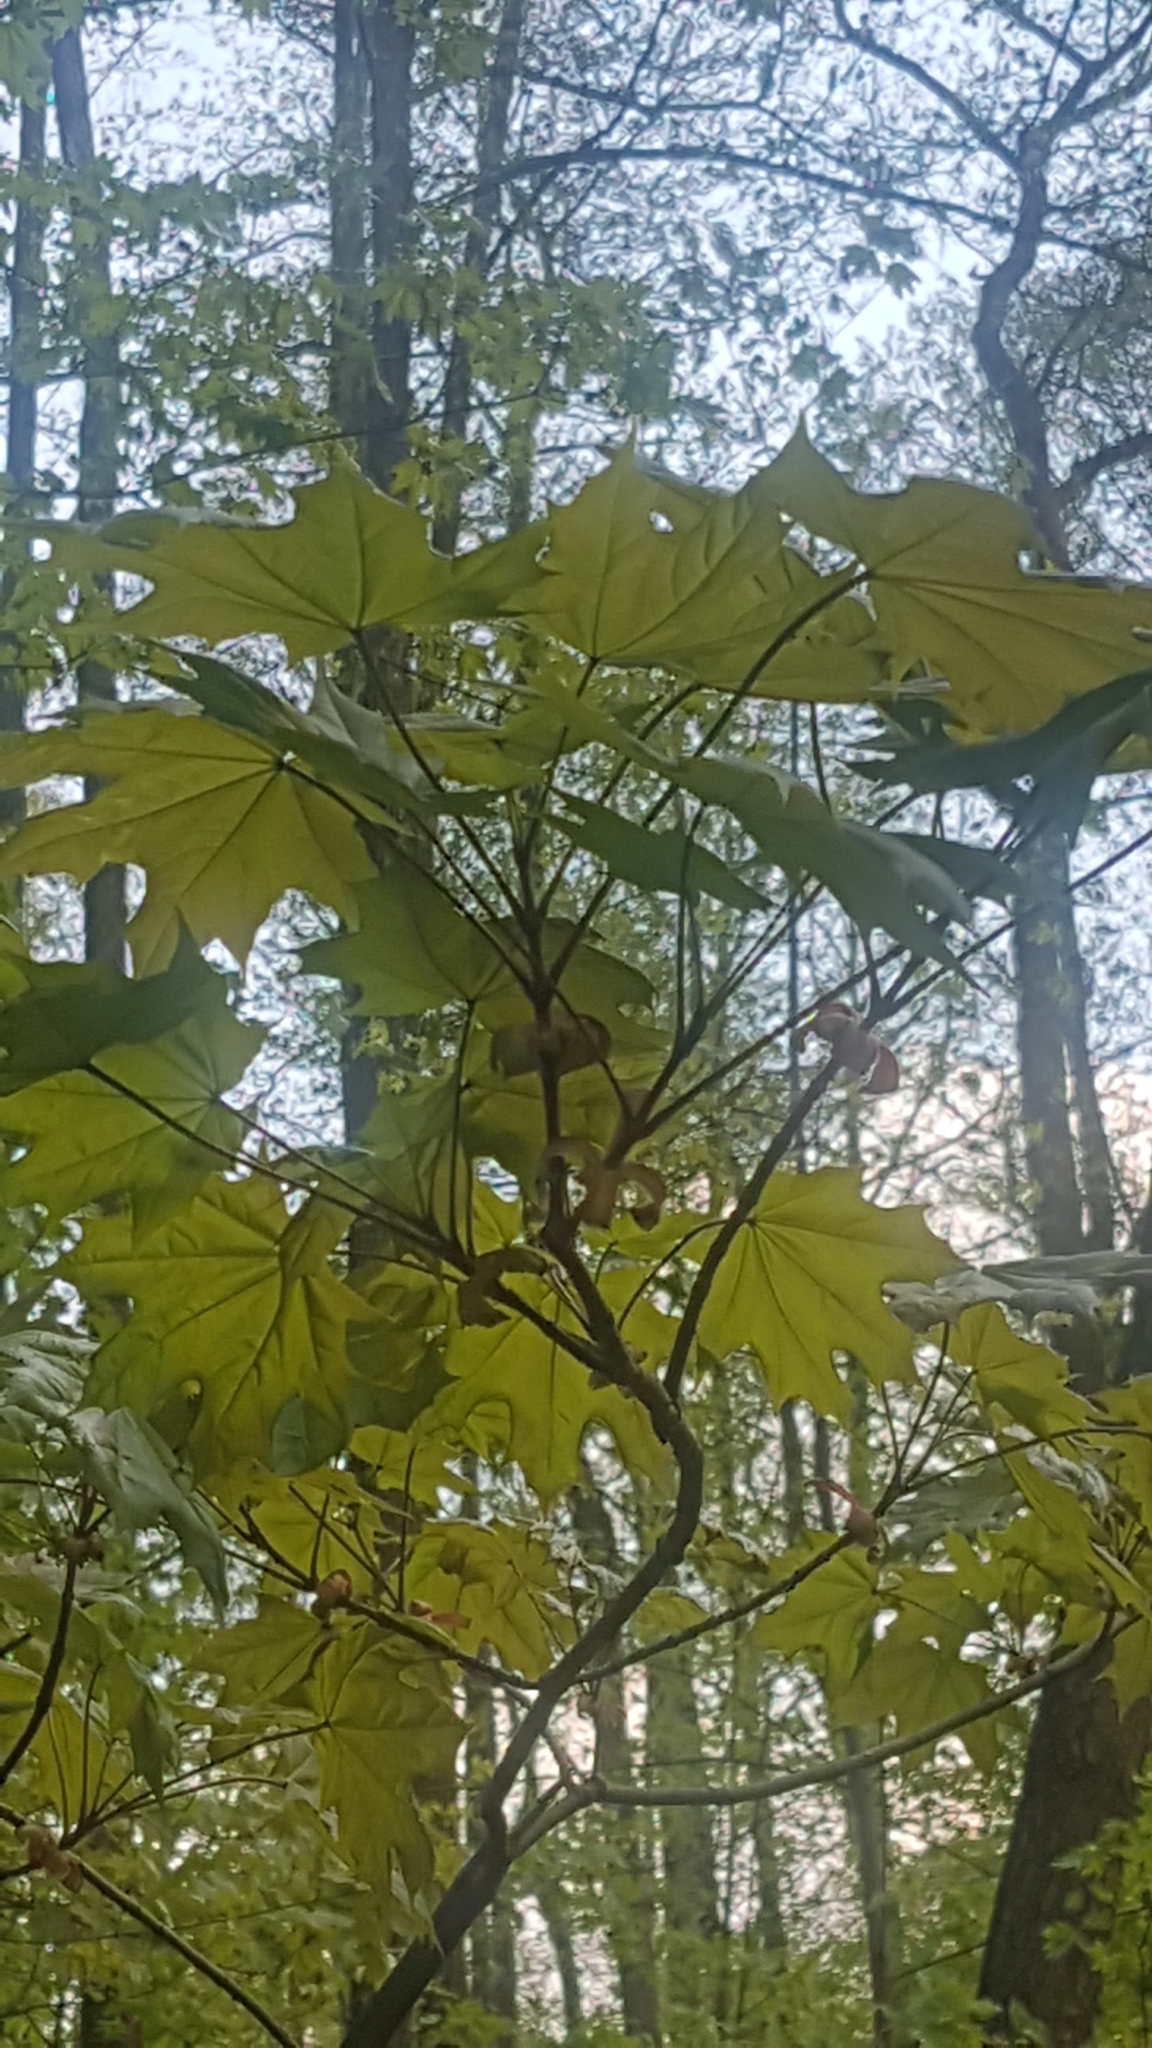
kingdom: Plantae
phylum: Tracheophyta
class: Magnoliopsida
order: Sapindales
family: Sapindaceae
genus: Acer
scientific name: Acer platanoides
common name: Norway maple
